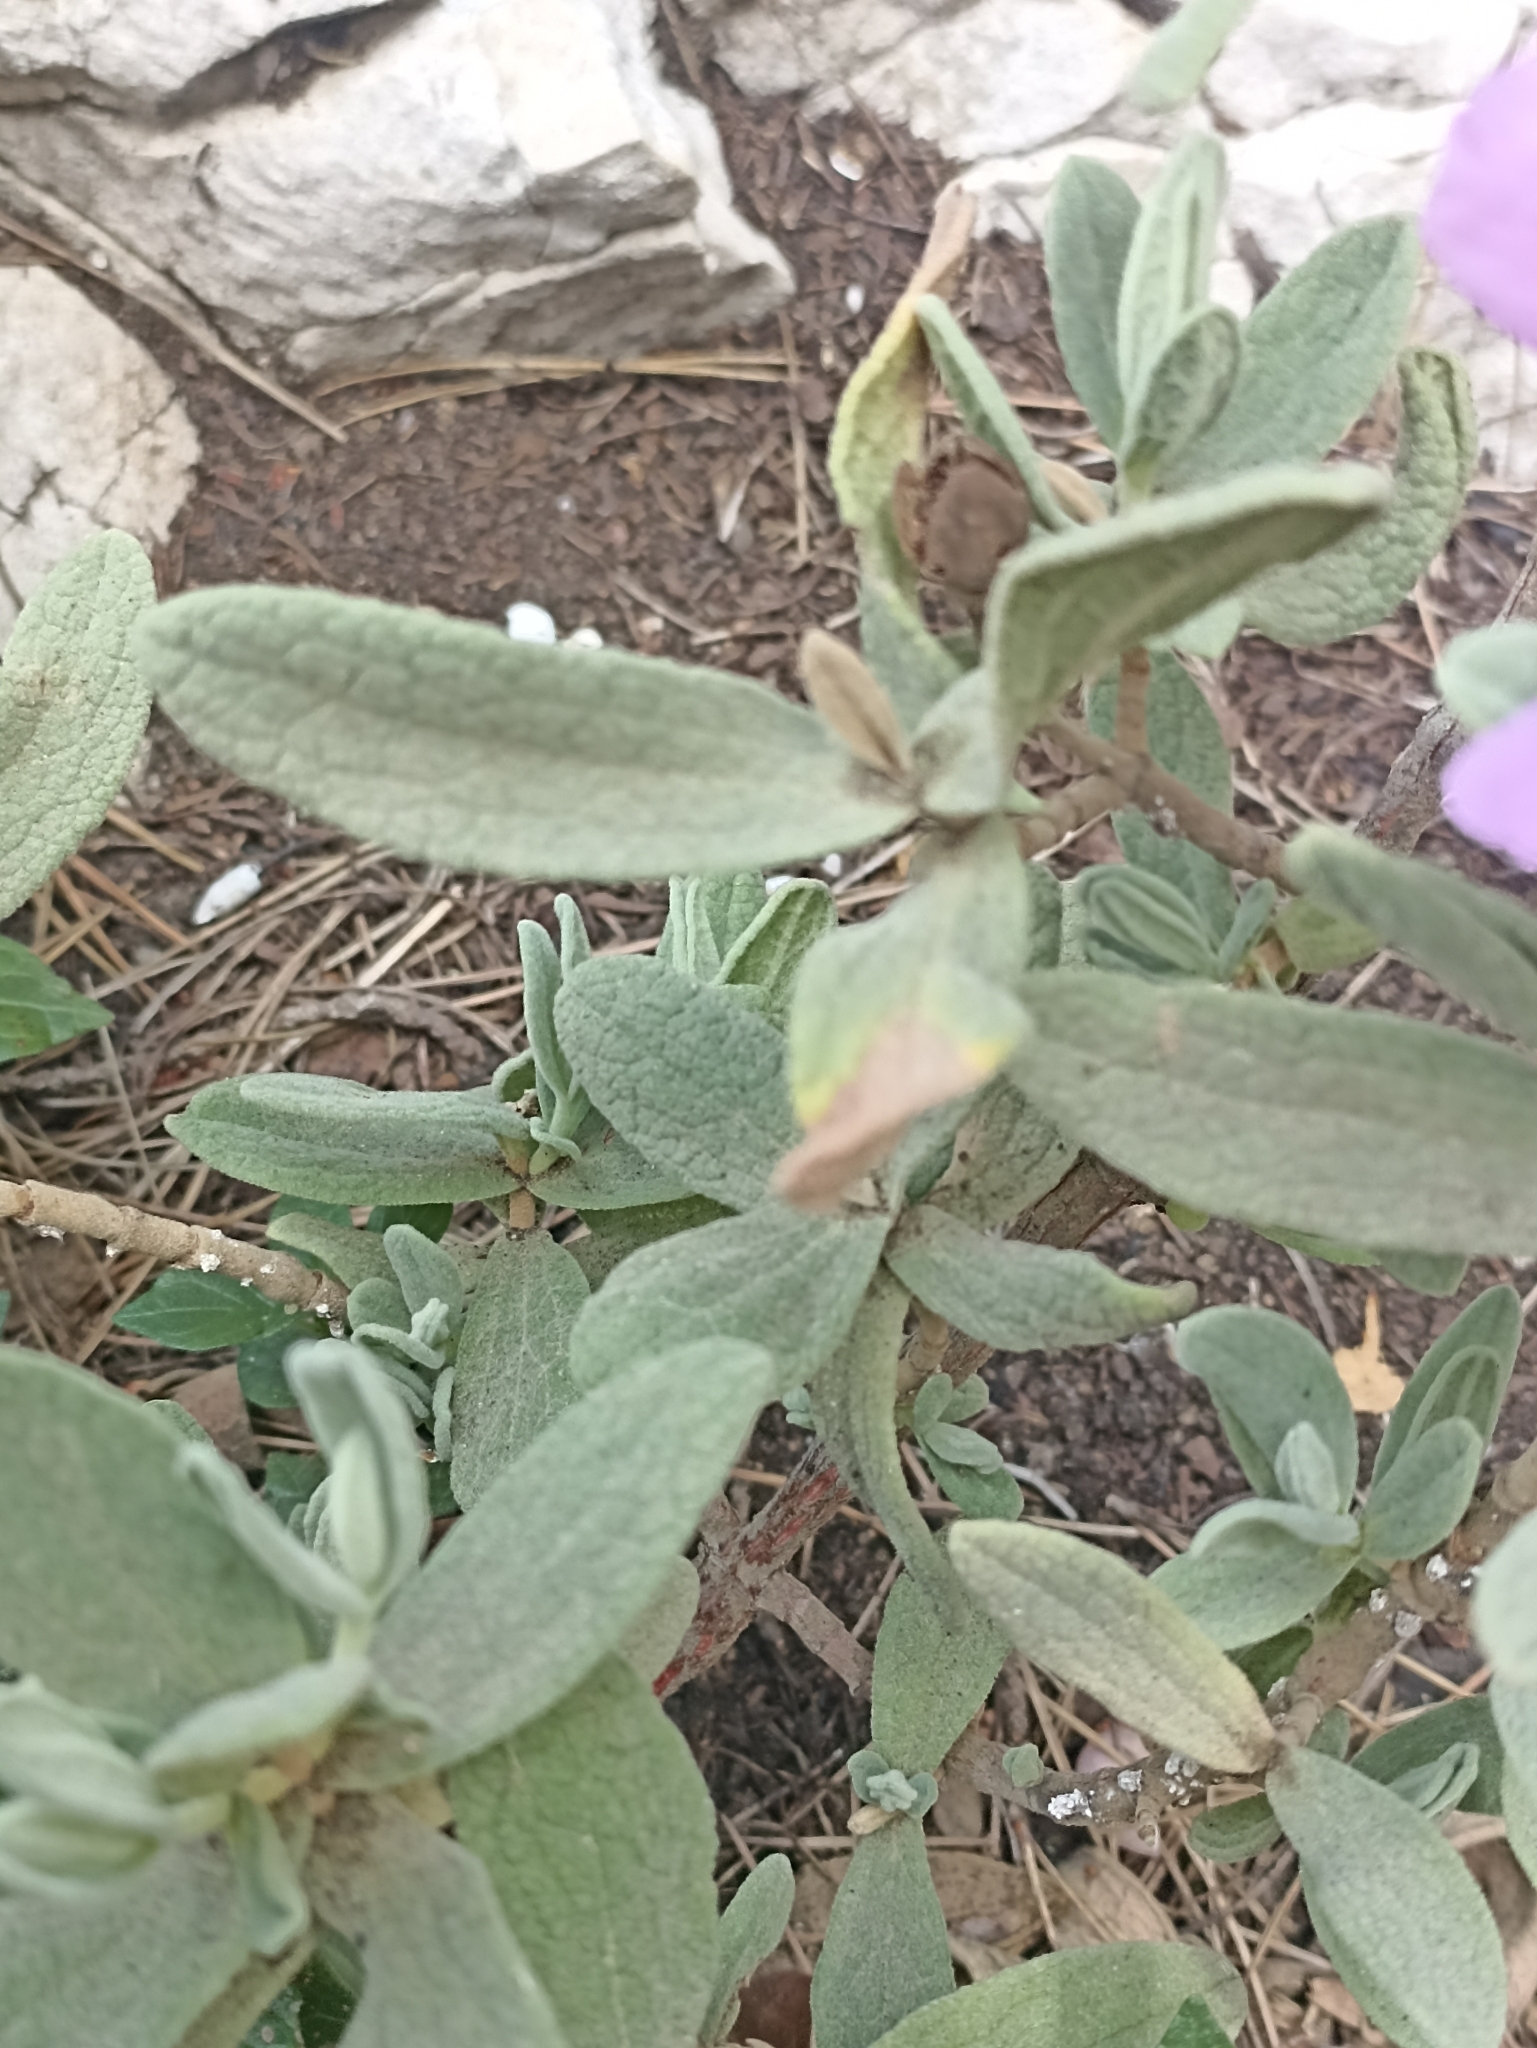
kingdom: Plantae
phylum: Tracheophyta
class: Magnoliopsida
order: Malvales
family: Cistaceae
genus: Cistus
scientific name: Cistus albidus
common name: White-leaf rock-rose
